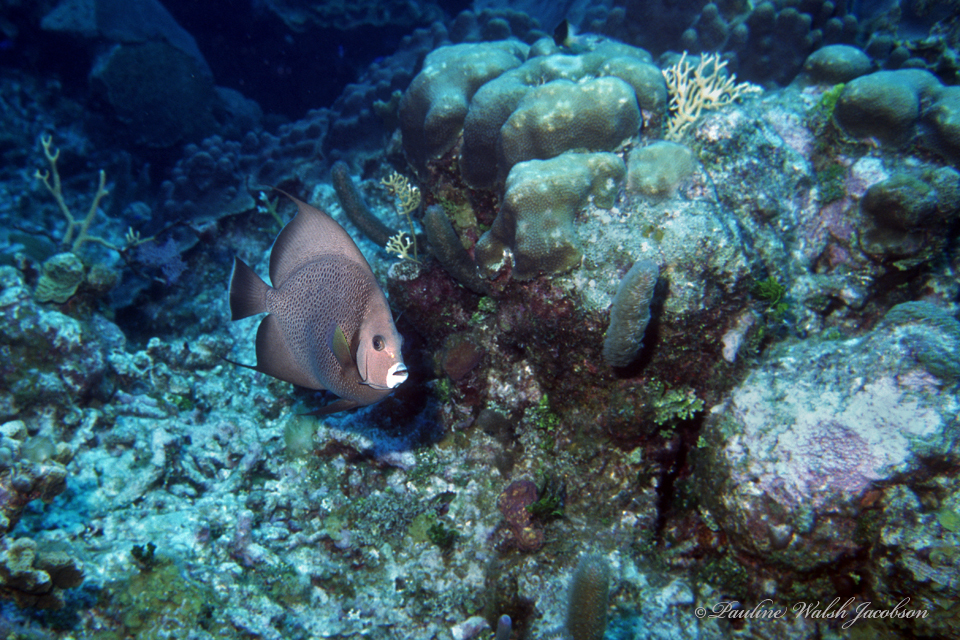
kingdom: Animalia
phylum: Chordata
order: Perciformes
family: Pomacanthidae
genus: Pomacanthus
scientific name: Pomacanthus arcuatus
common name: Gray angelfish
